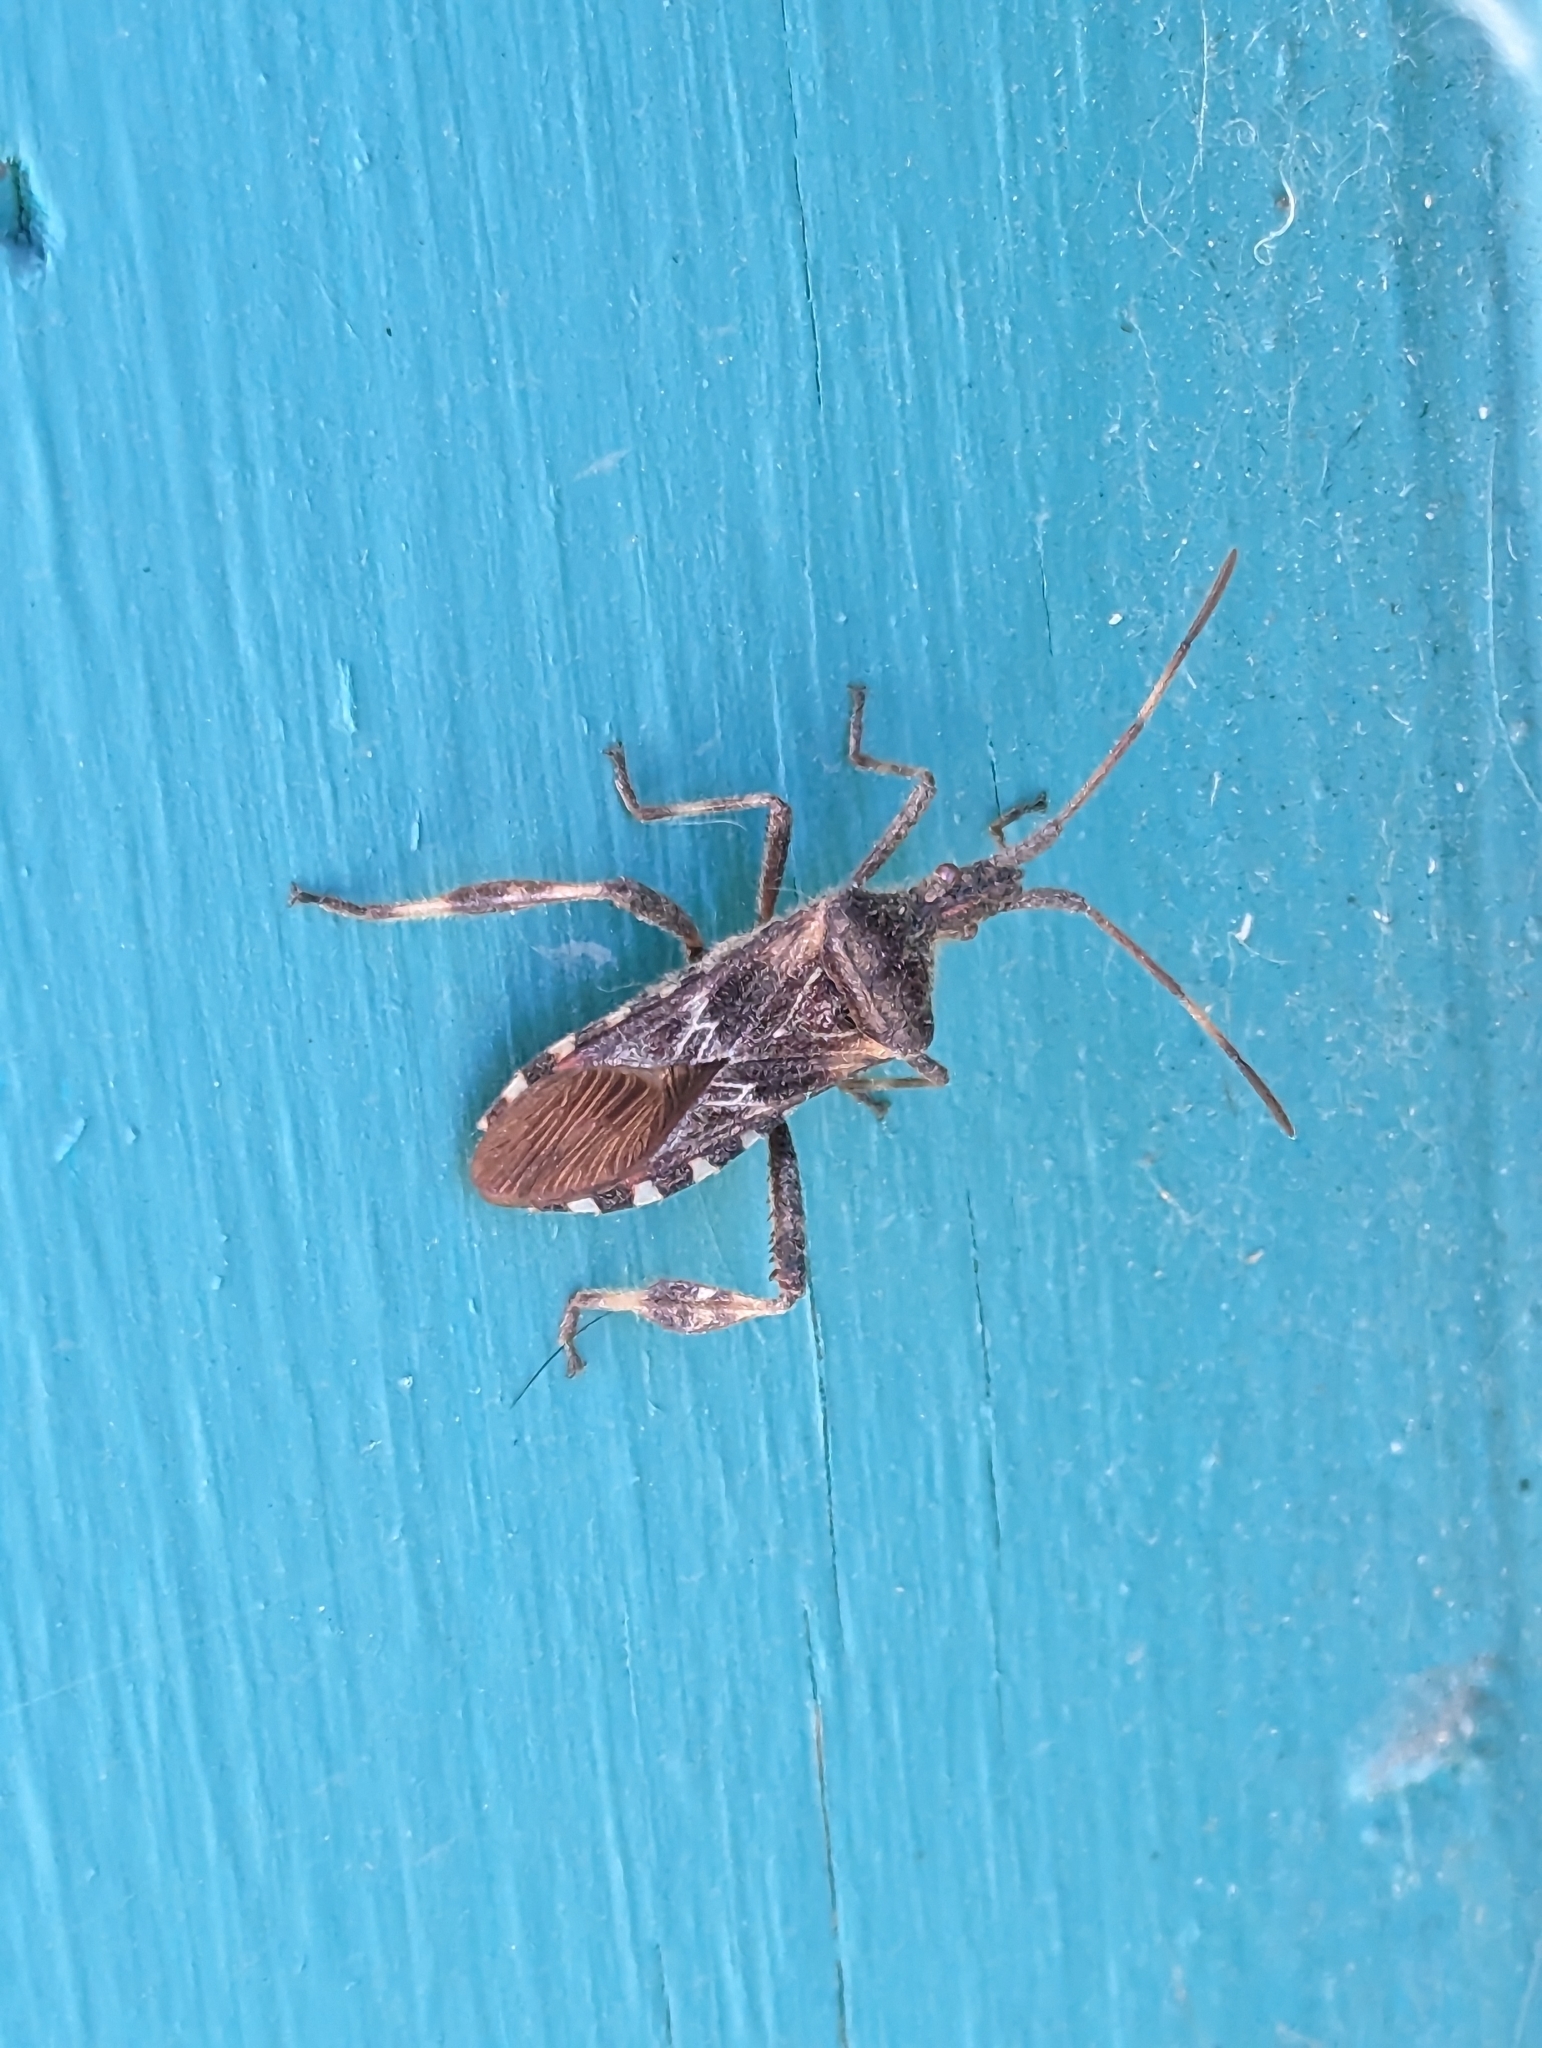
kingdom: Animalia
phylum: Arthropoda
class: Insecta
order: Hemiptera
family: Coreidae
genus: Leptoglossus
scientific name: Leptoglossus occidentalis
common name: Western conifer-seed bug
